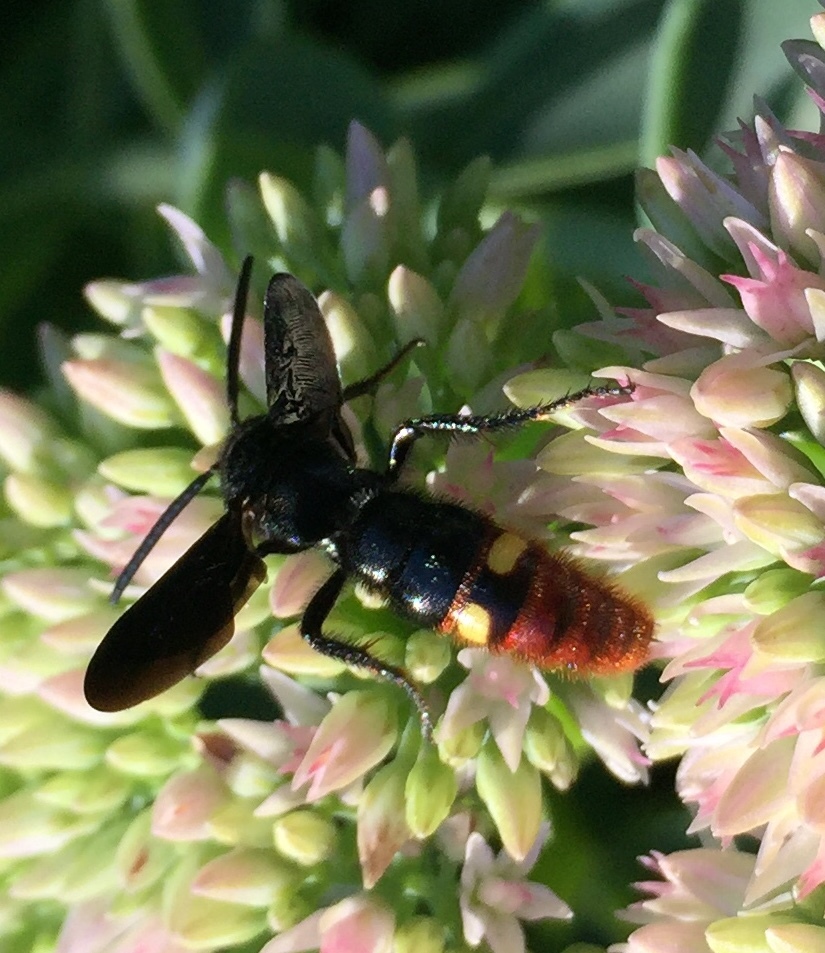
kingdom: Animalia
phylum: Arthropoda
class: Insecta
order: Hymenoptera
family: Scoliidae
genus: Scolia
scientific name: Scolia dubia
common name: Blue-winged scoliid wasp
